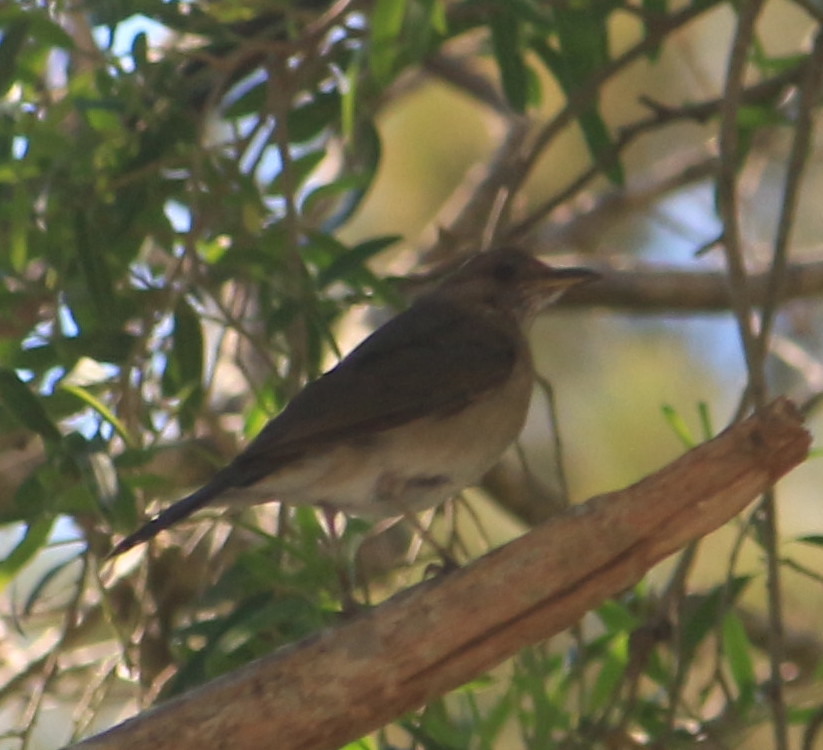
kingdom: Animalia
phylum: Chordata
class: Aves
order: Passeriformes
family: Turdidae
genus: Turdus
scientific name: Turdus amaurochalinus
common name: Creamy-bellied thrush
